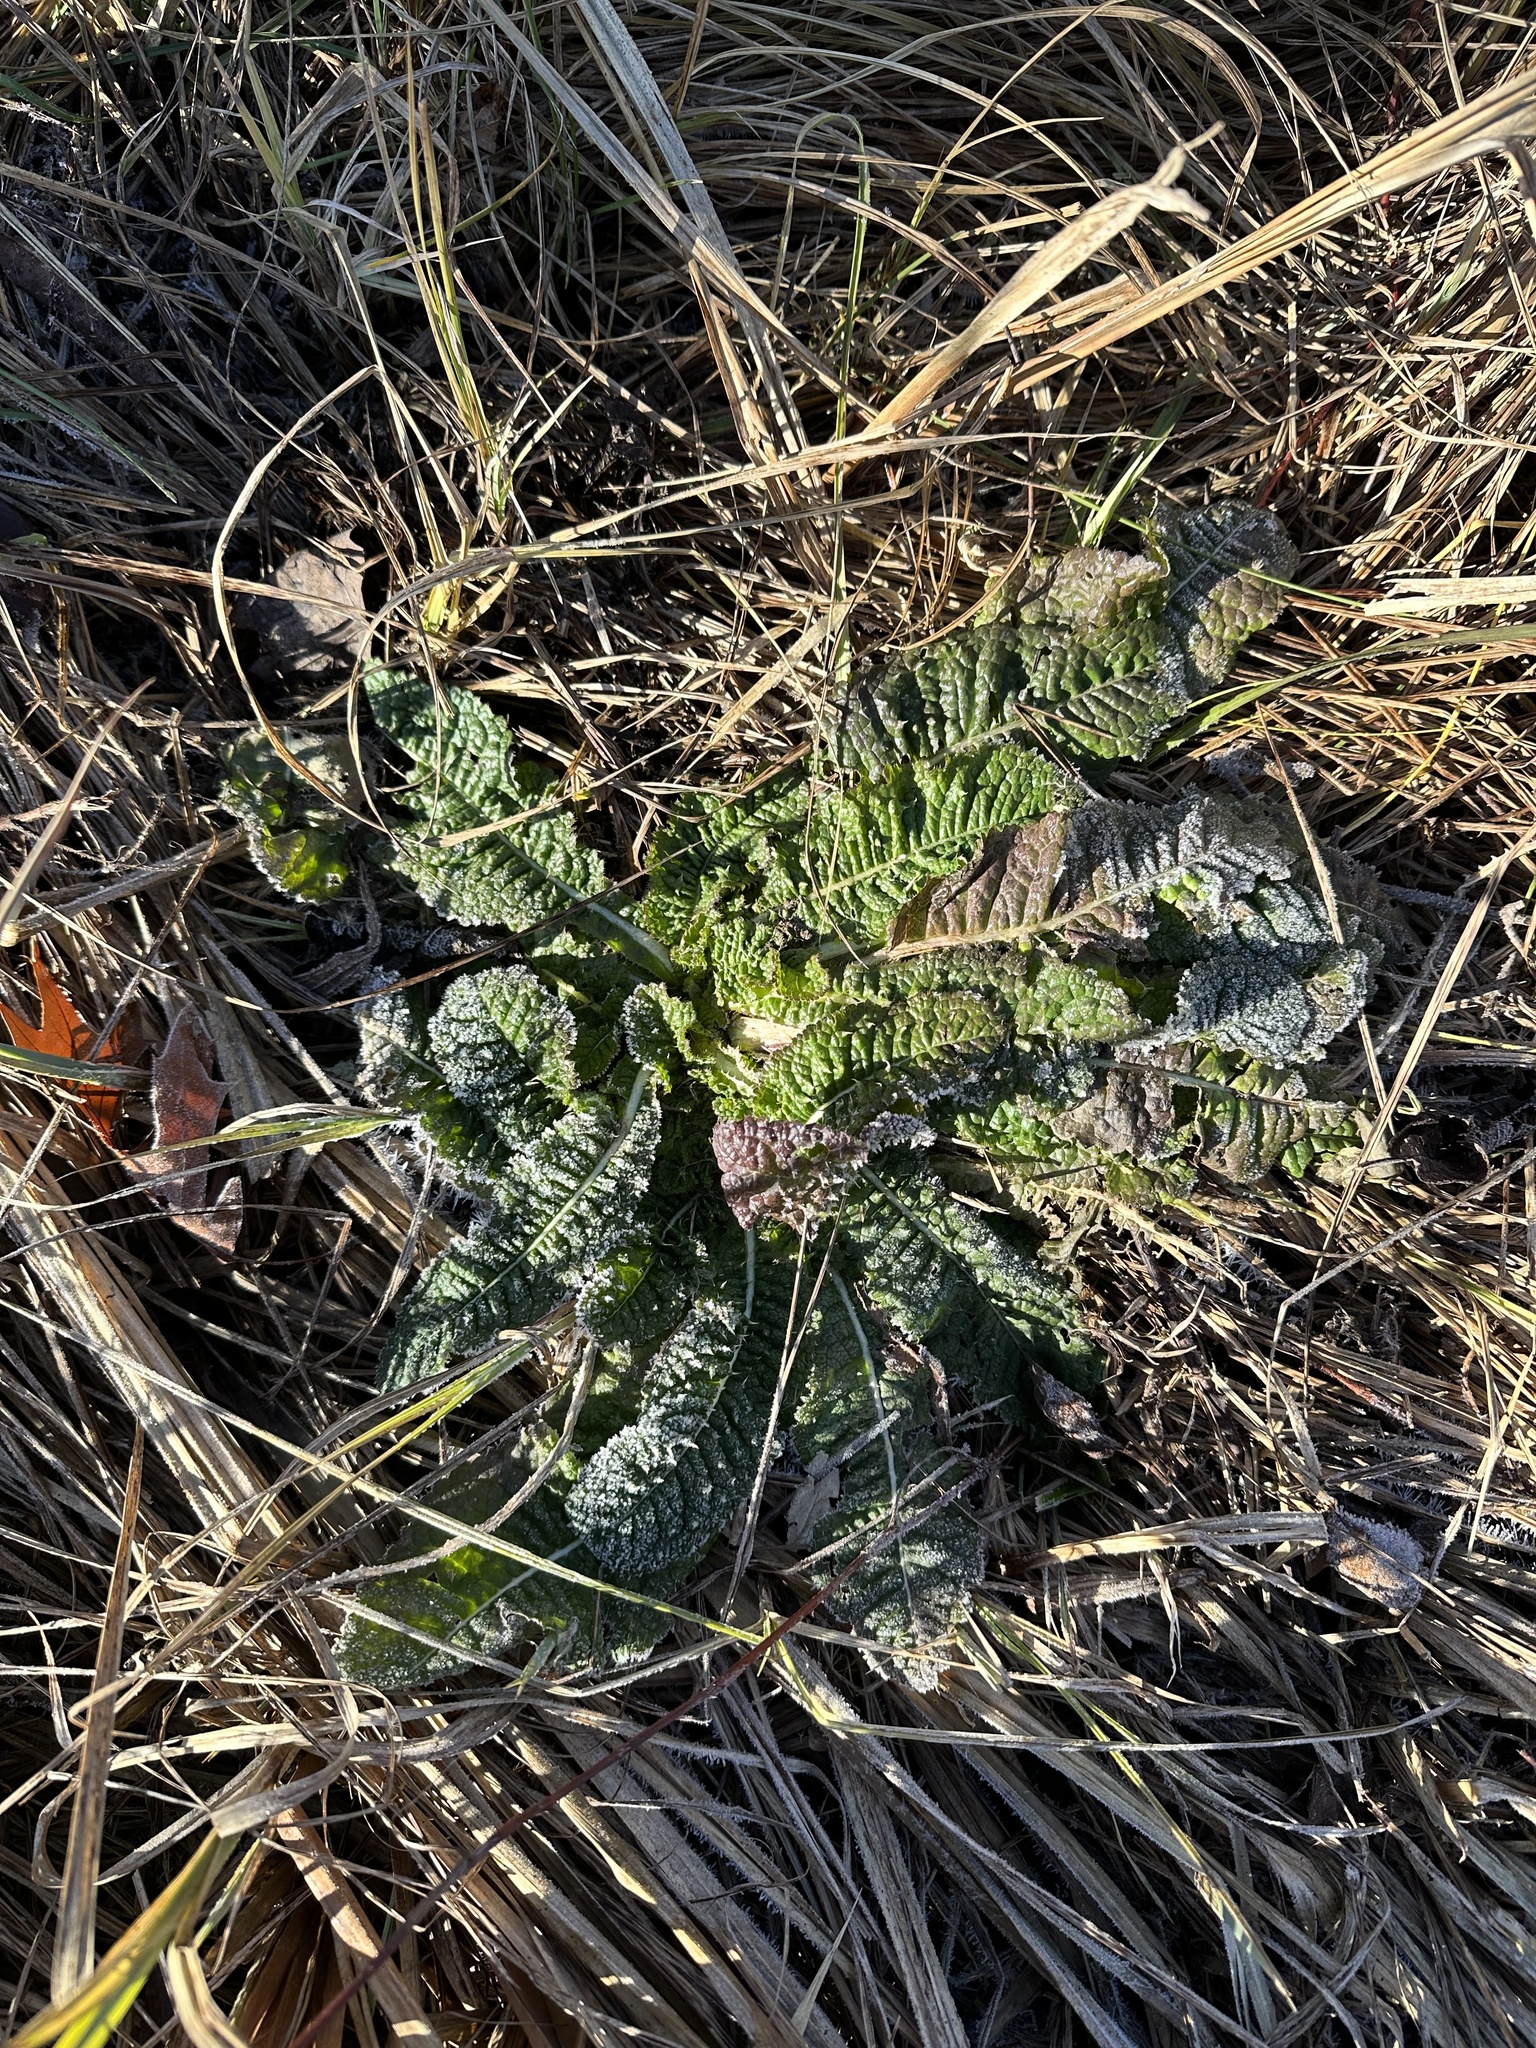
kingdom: Plantae
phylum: Tracheophyta
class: Magnoliopsida
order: Dipsacales
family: Caprifoliaceae
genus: Dipsacus
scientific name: Dipsacus fullonum
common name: Teasel
